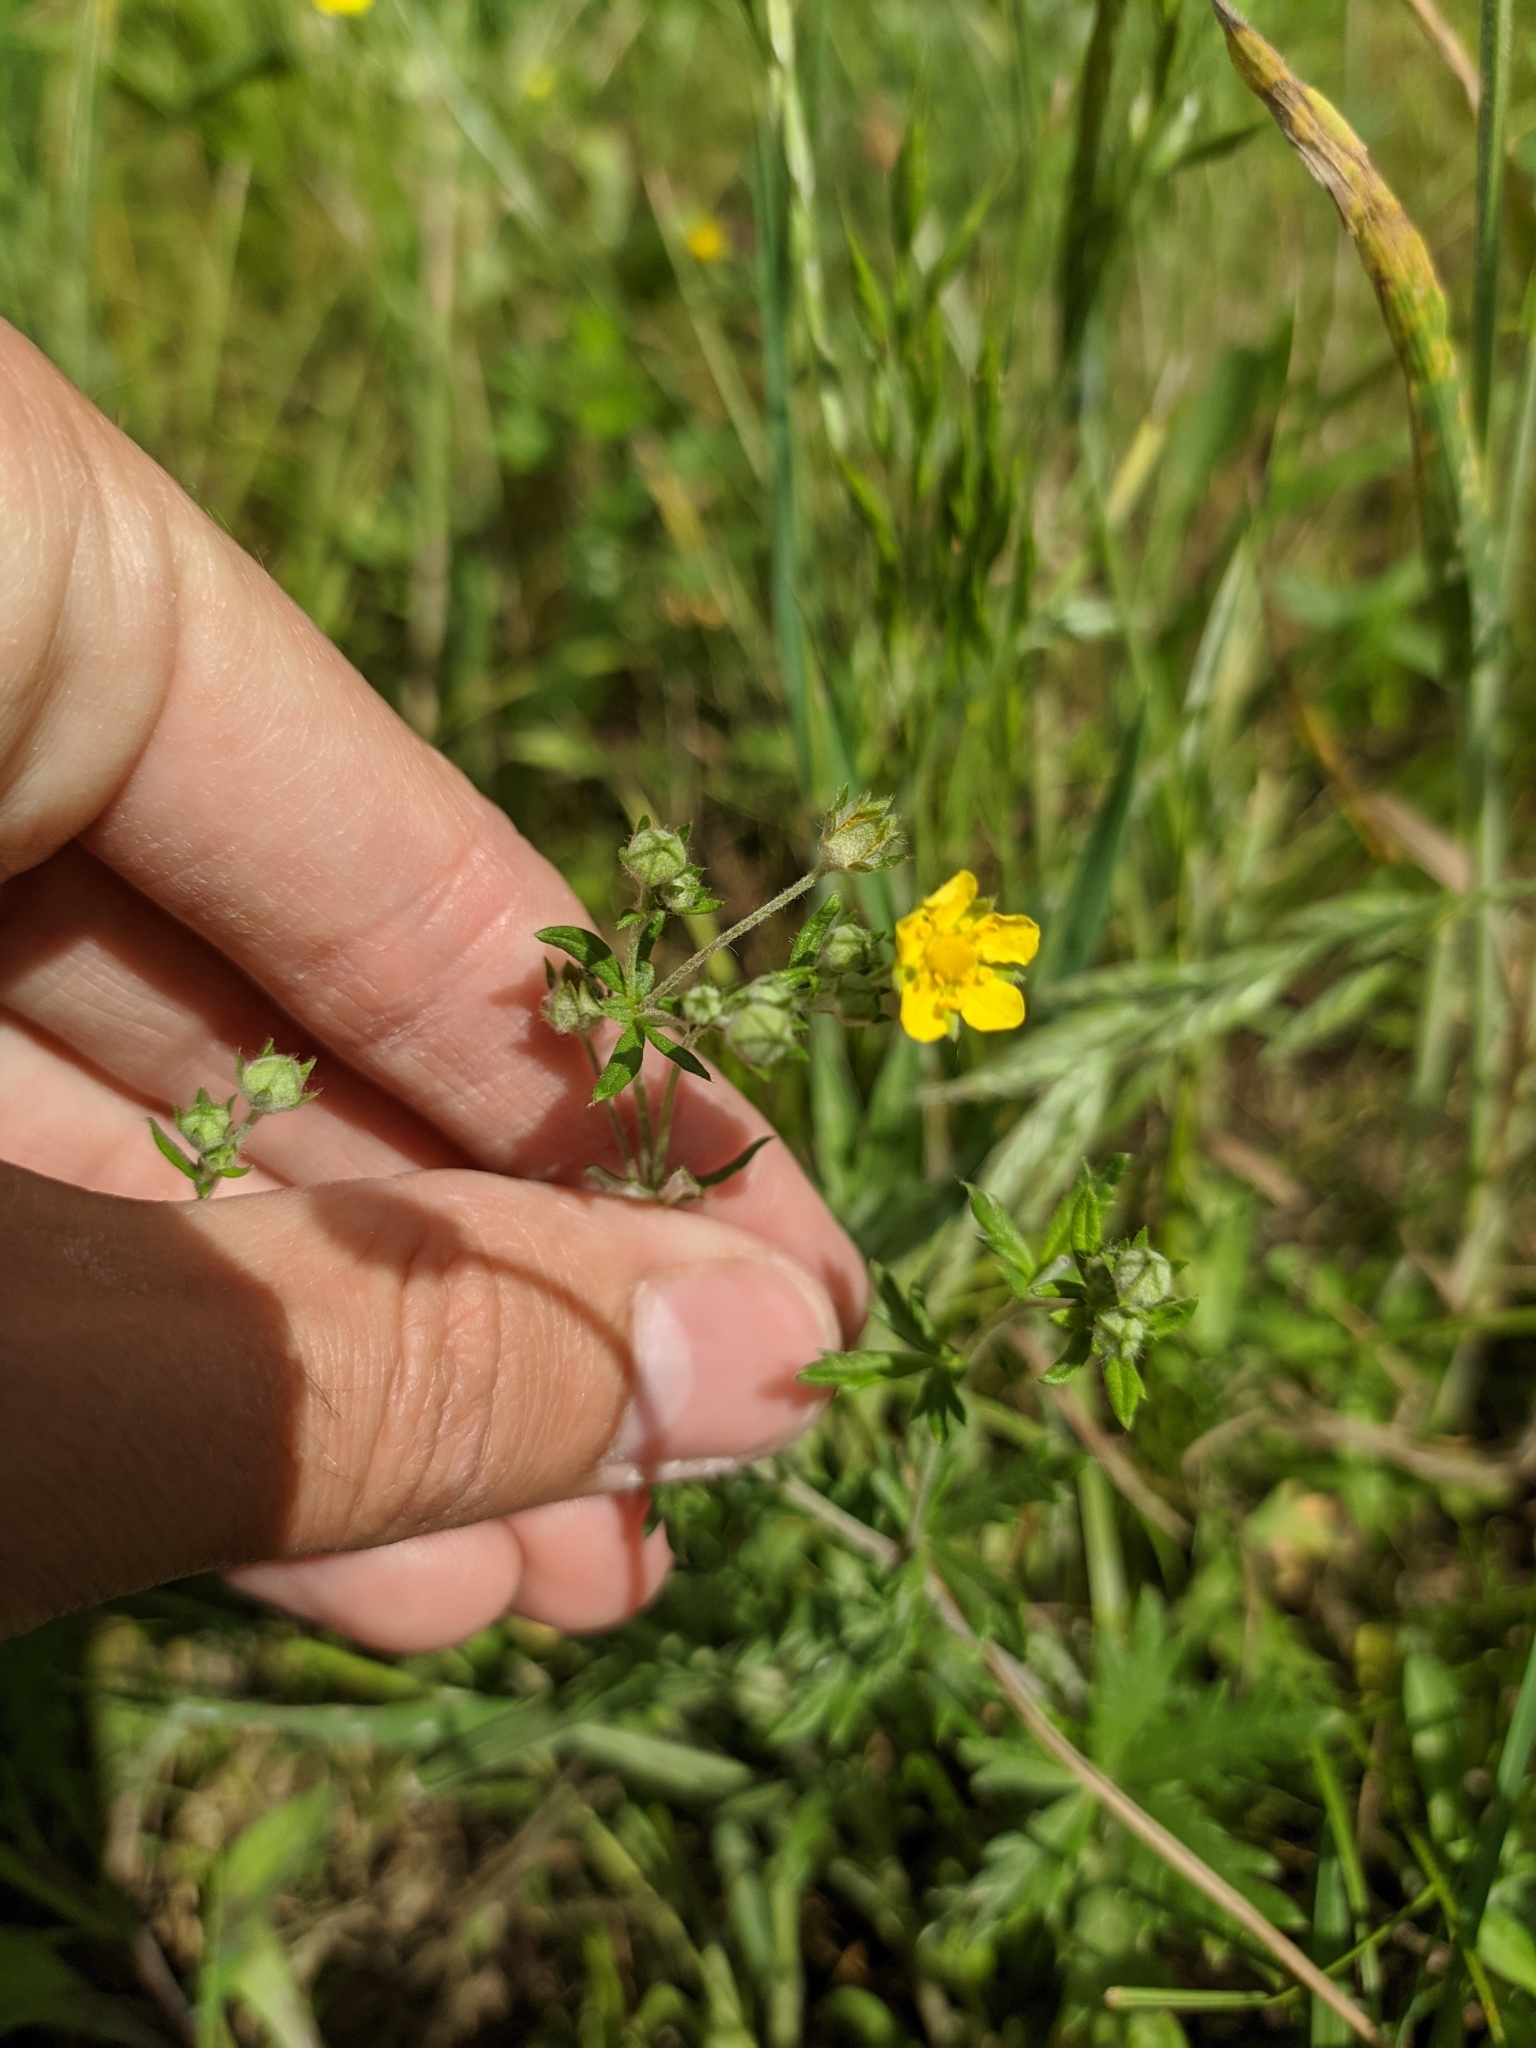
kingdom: Plantae
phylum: Tracheophyta
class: Magnoliopsida
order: Rosales
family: Rosaceae
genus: Potentilla
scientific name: Potentilla argentea
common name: Hoary cinquefoil
